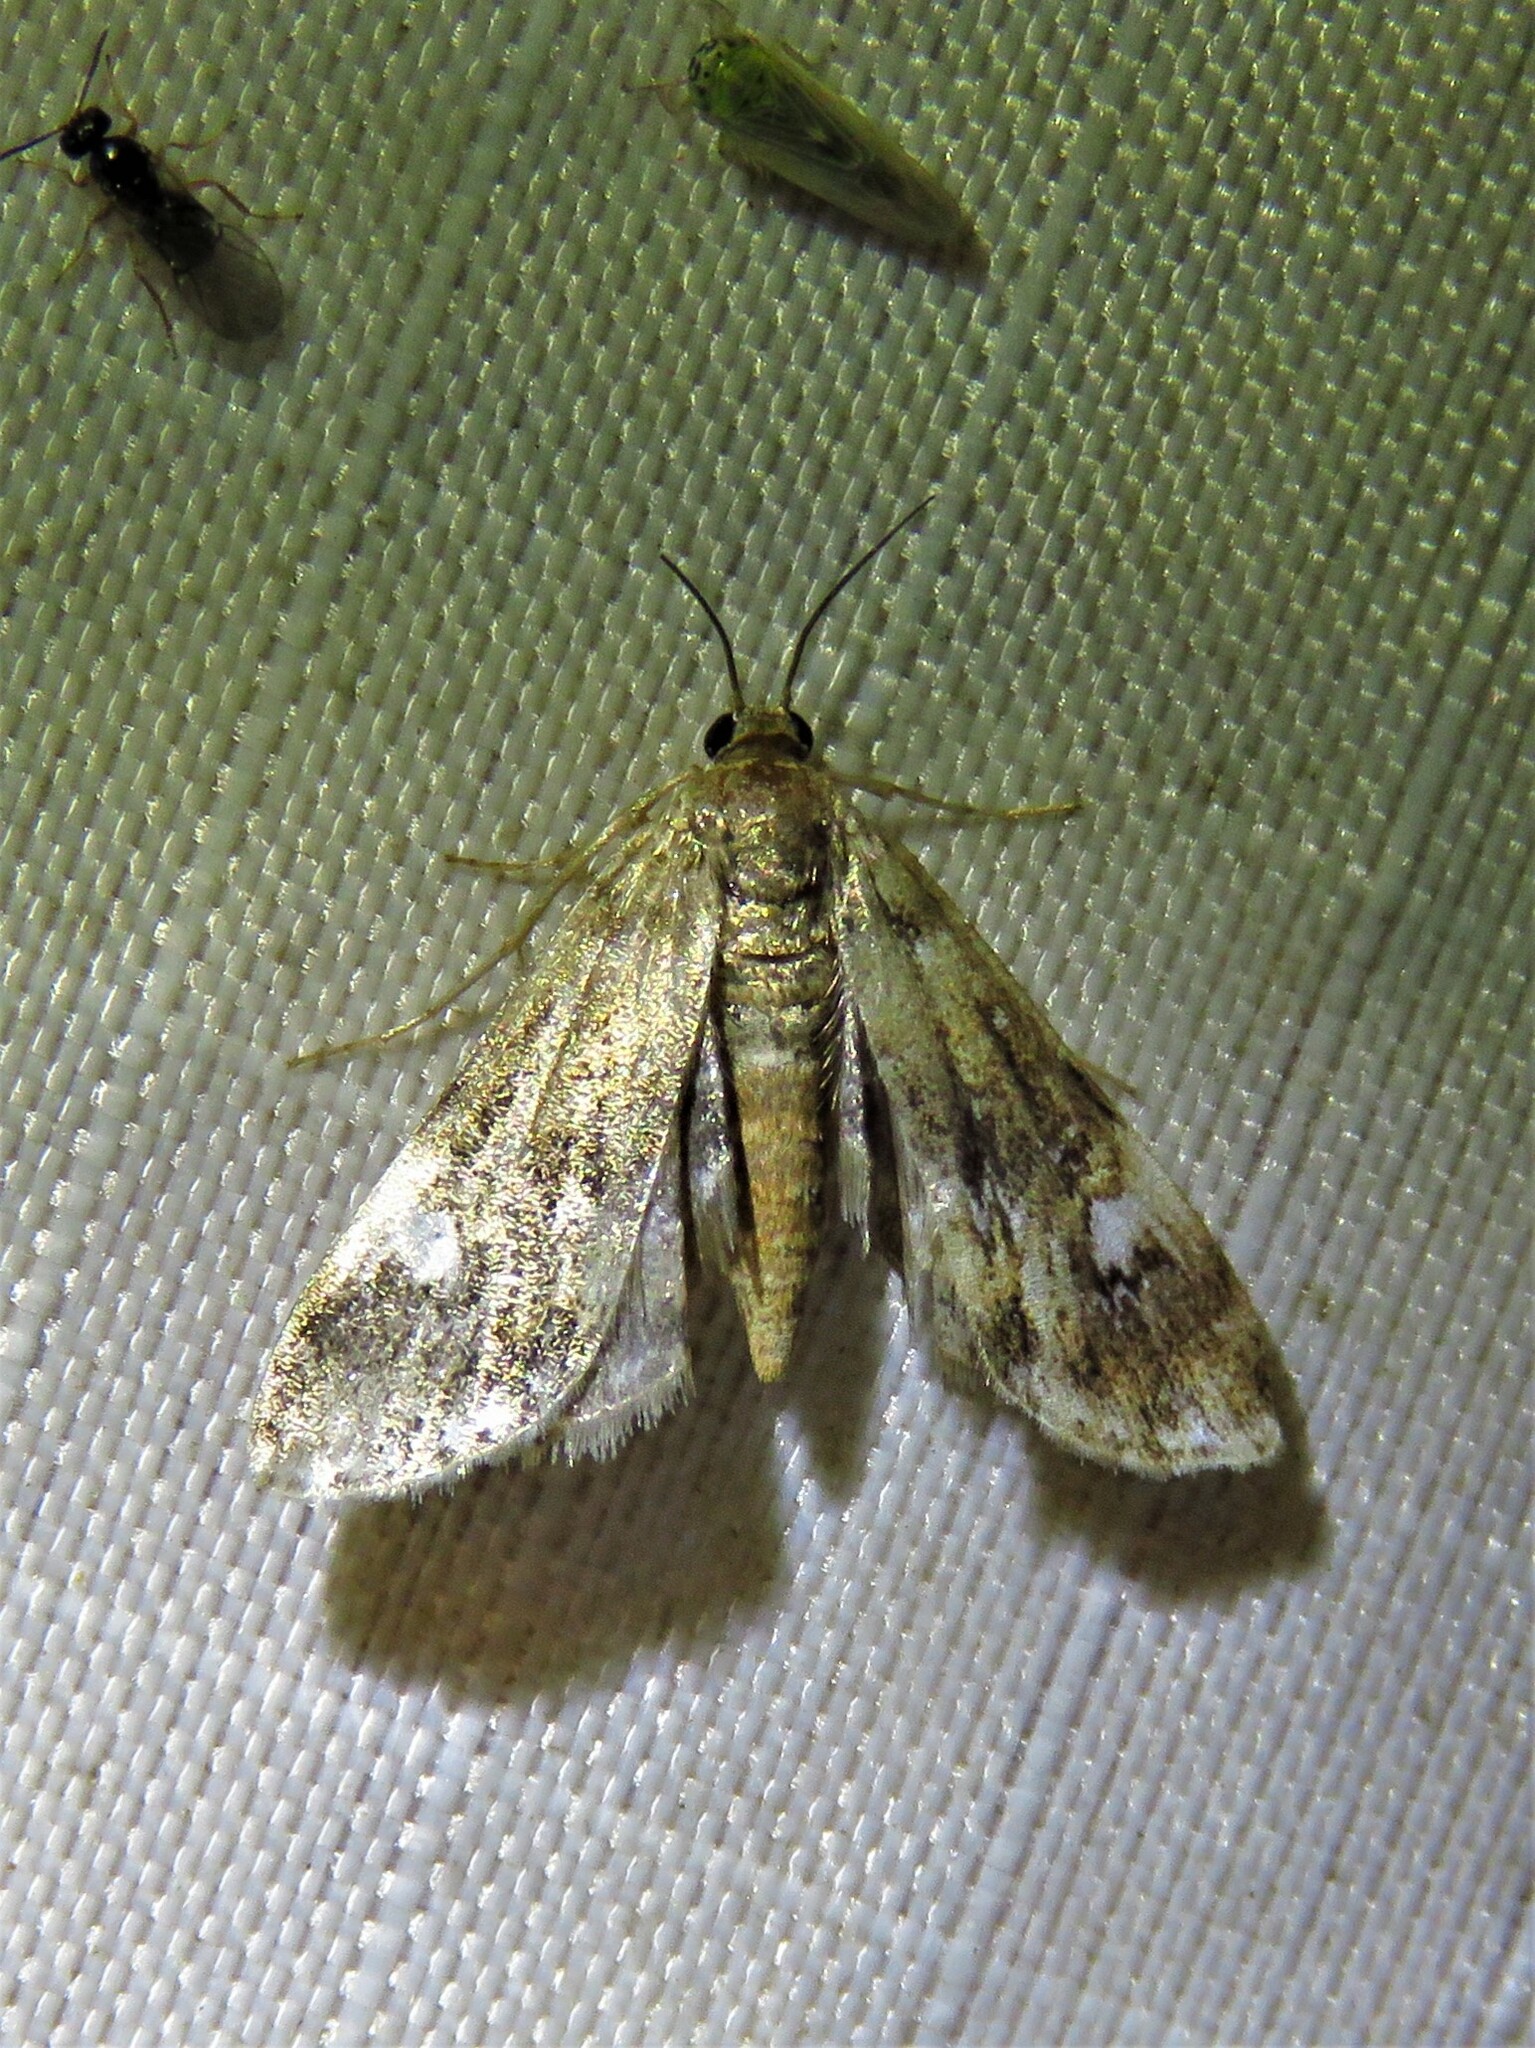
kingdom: Animalia
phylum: Arthropoda
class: Insecta
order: Lepidoptera
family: Crambidae
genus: Elophila
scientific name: Elophila obliteralis
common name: Waterlily leafcutter moth
